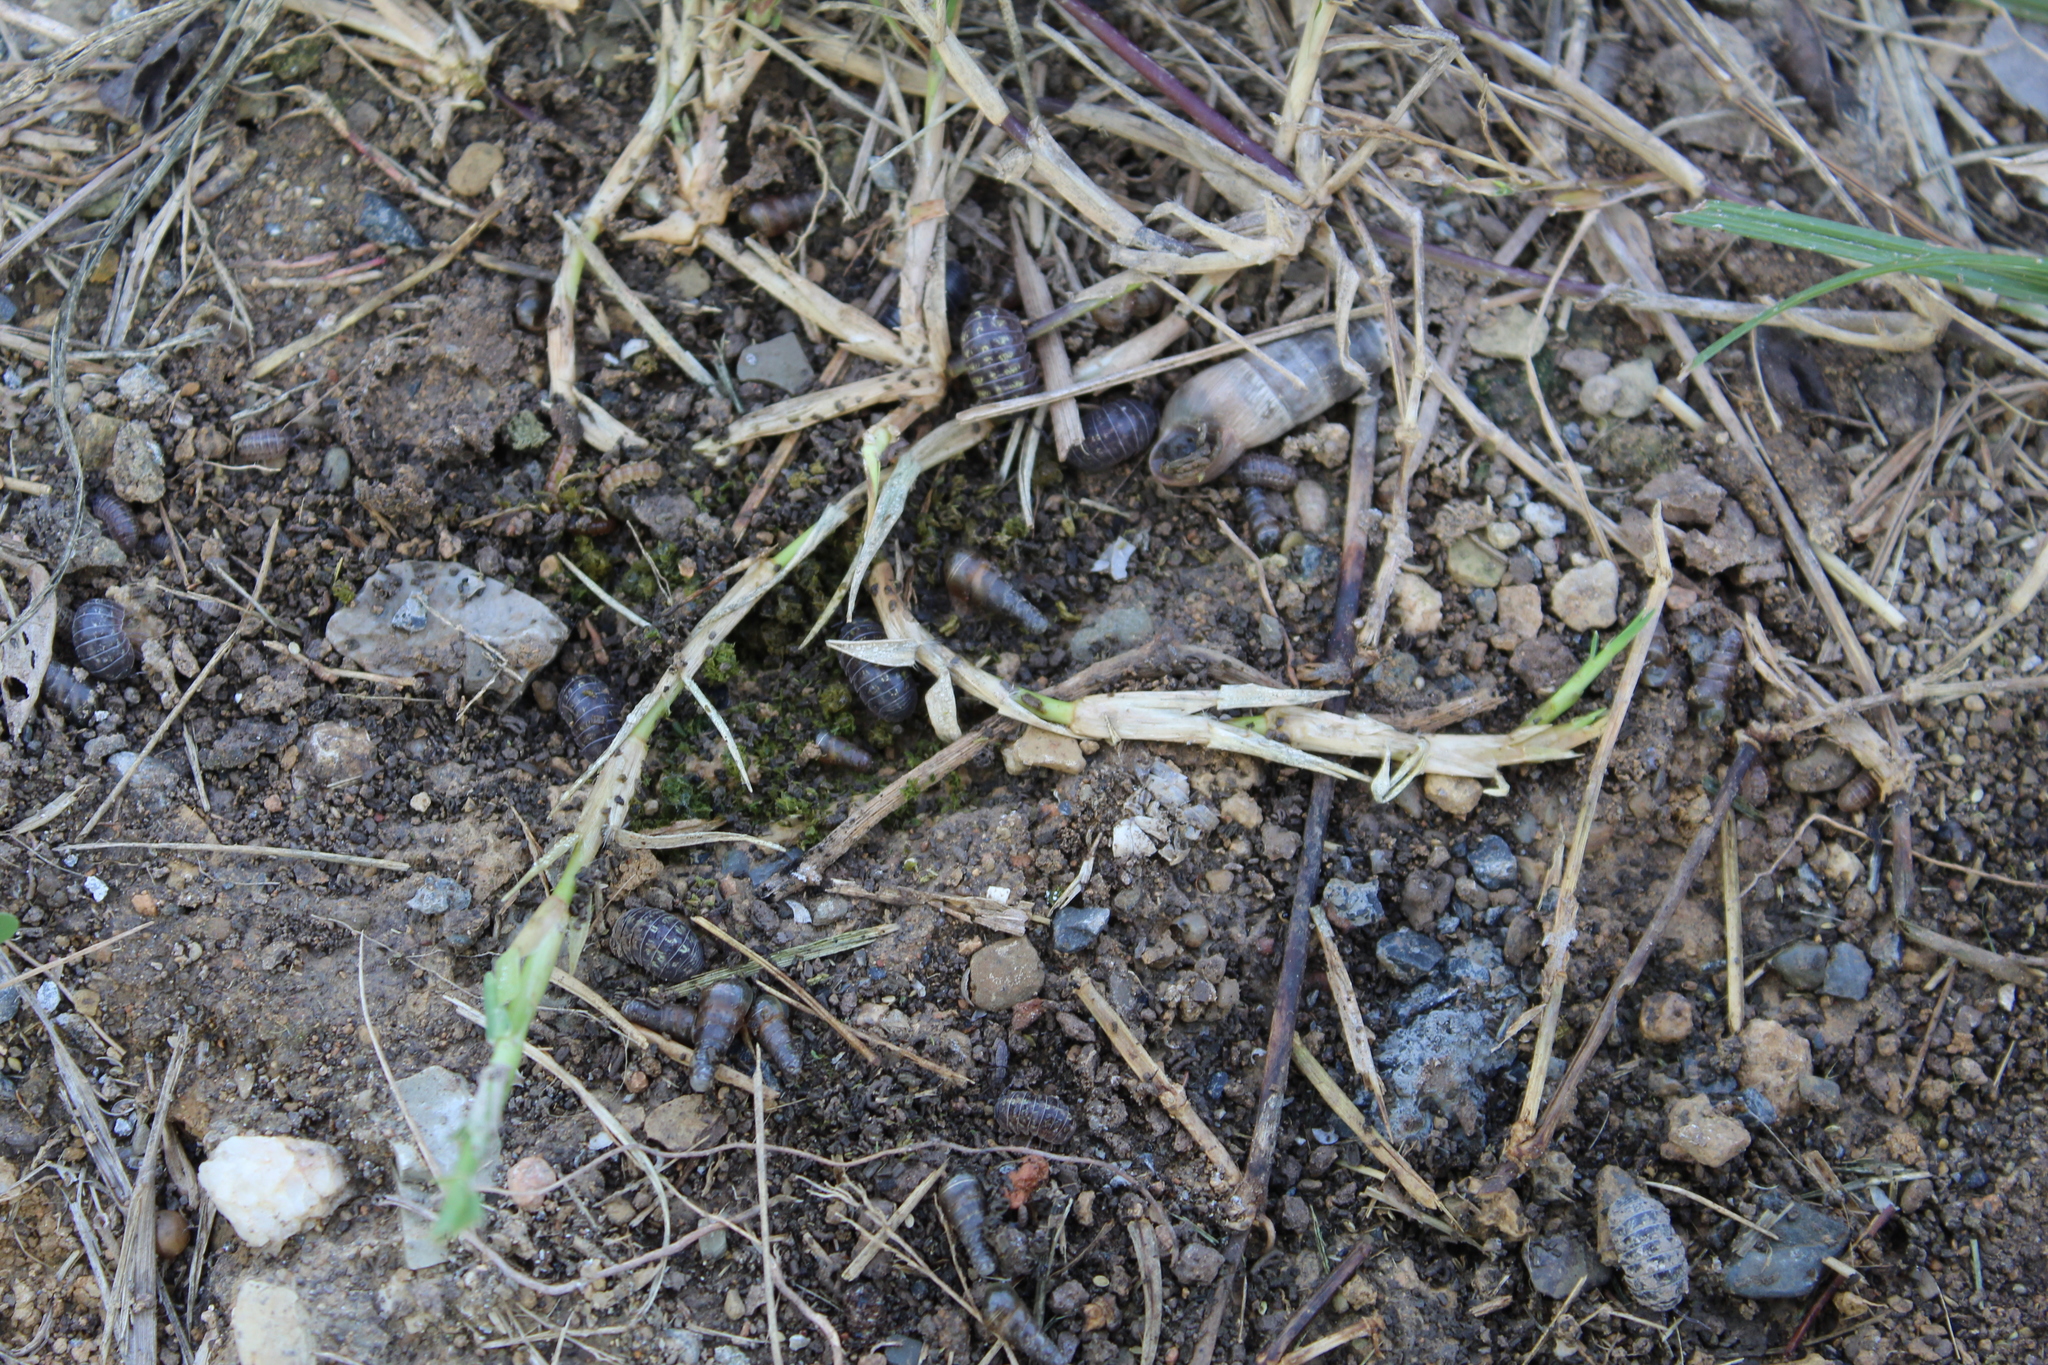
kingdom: Animalia
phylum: Arthropoda
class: Malacostraca
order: Isopoda
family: Armadillidiidae
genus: Armadillidium
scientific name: Armadillidium vulgare
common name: Common pill woodlouse
